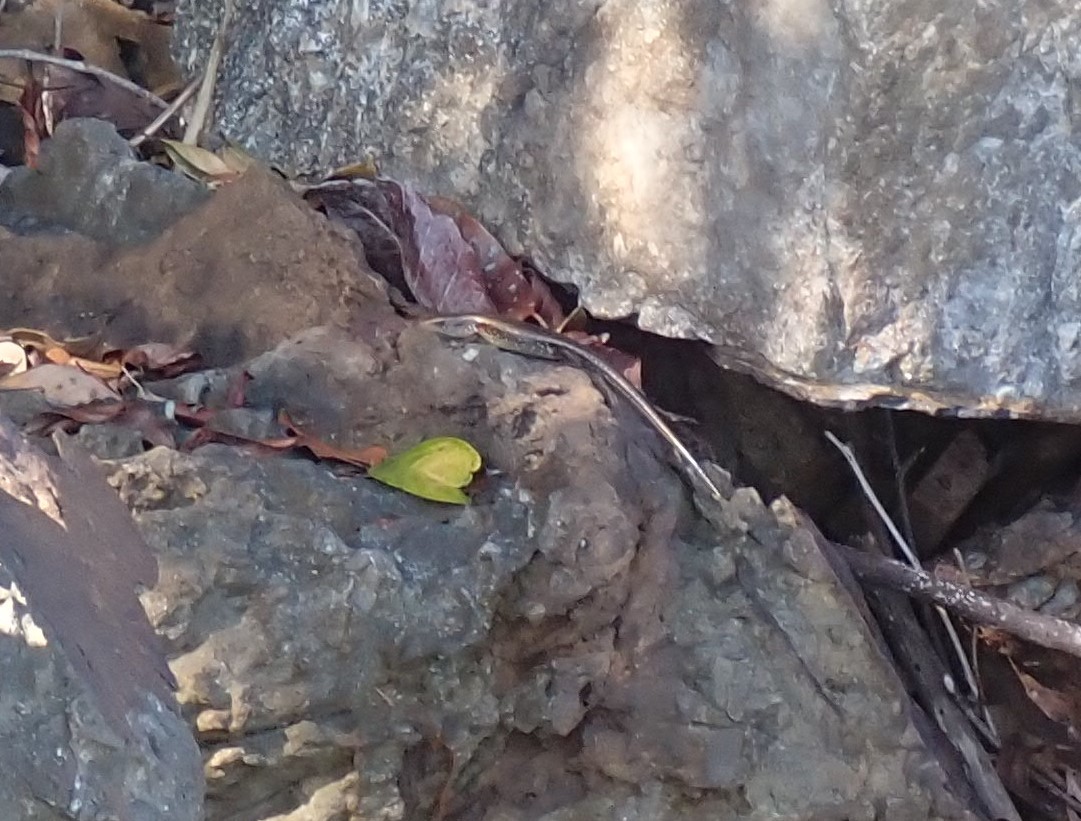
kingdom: Animalia
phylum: Chordata
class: Squamata
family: Scincidae
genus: Eutropis
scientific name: Eutropis multifasciata
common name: Common mabuya
